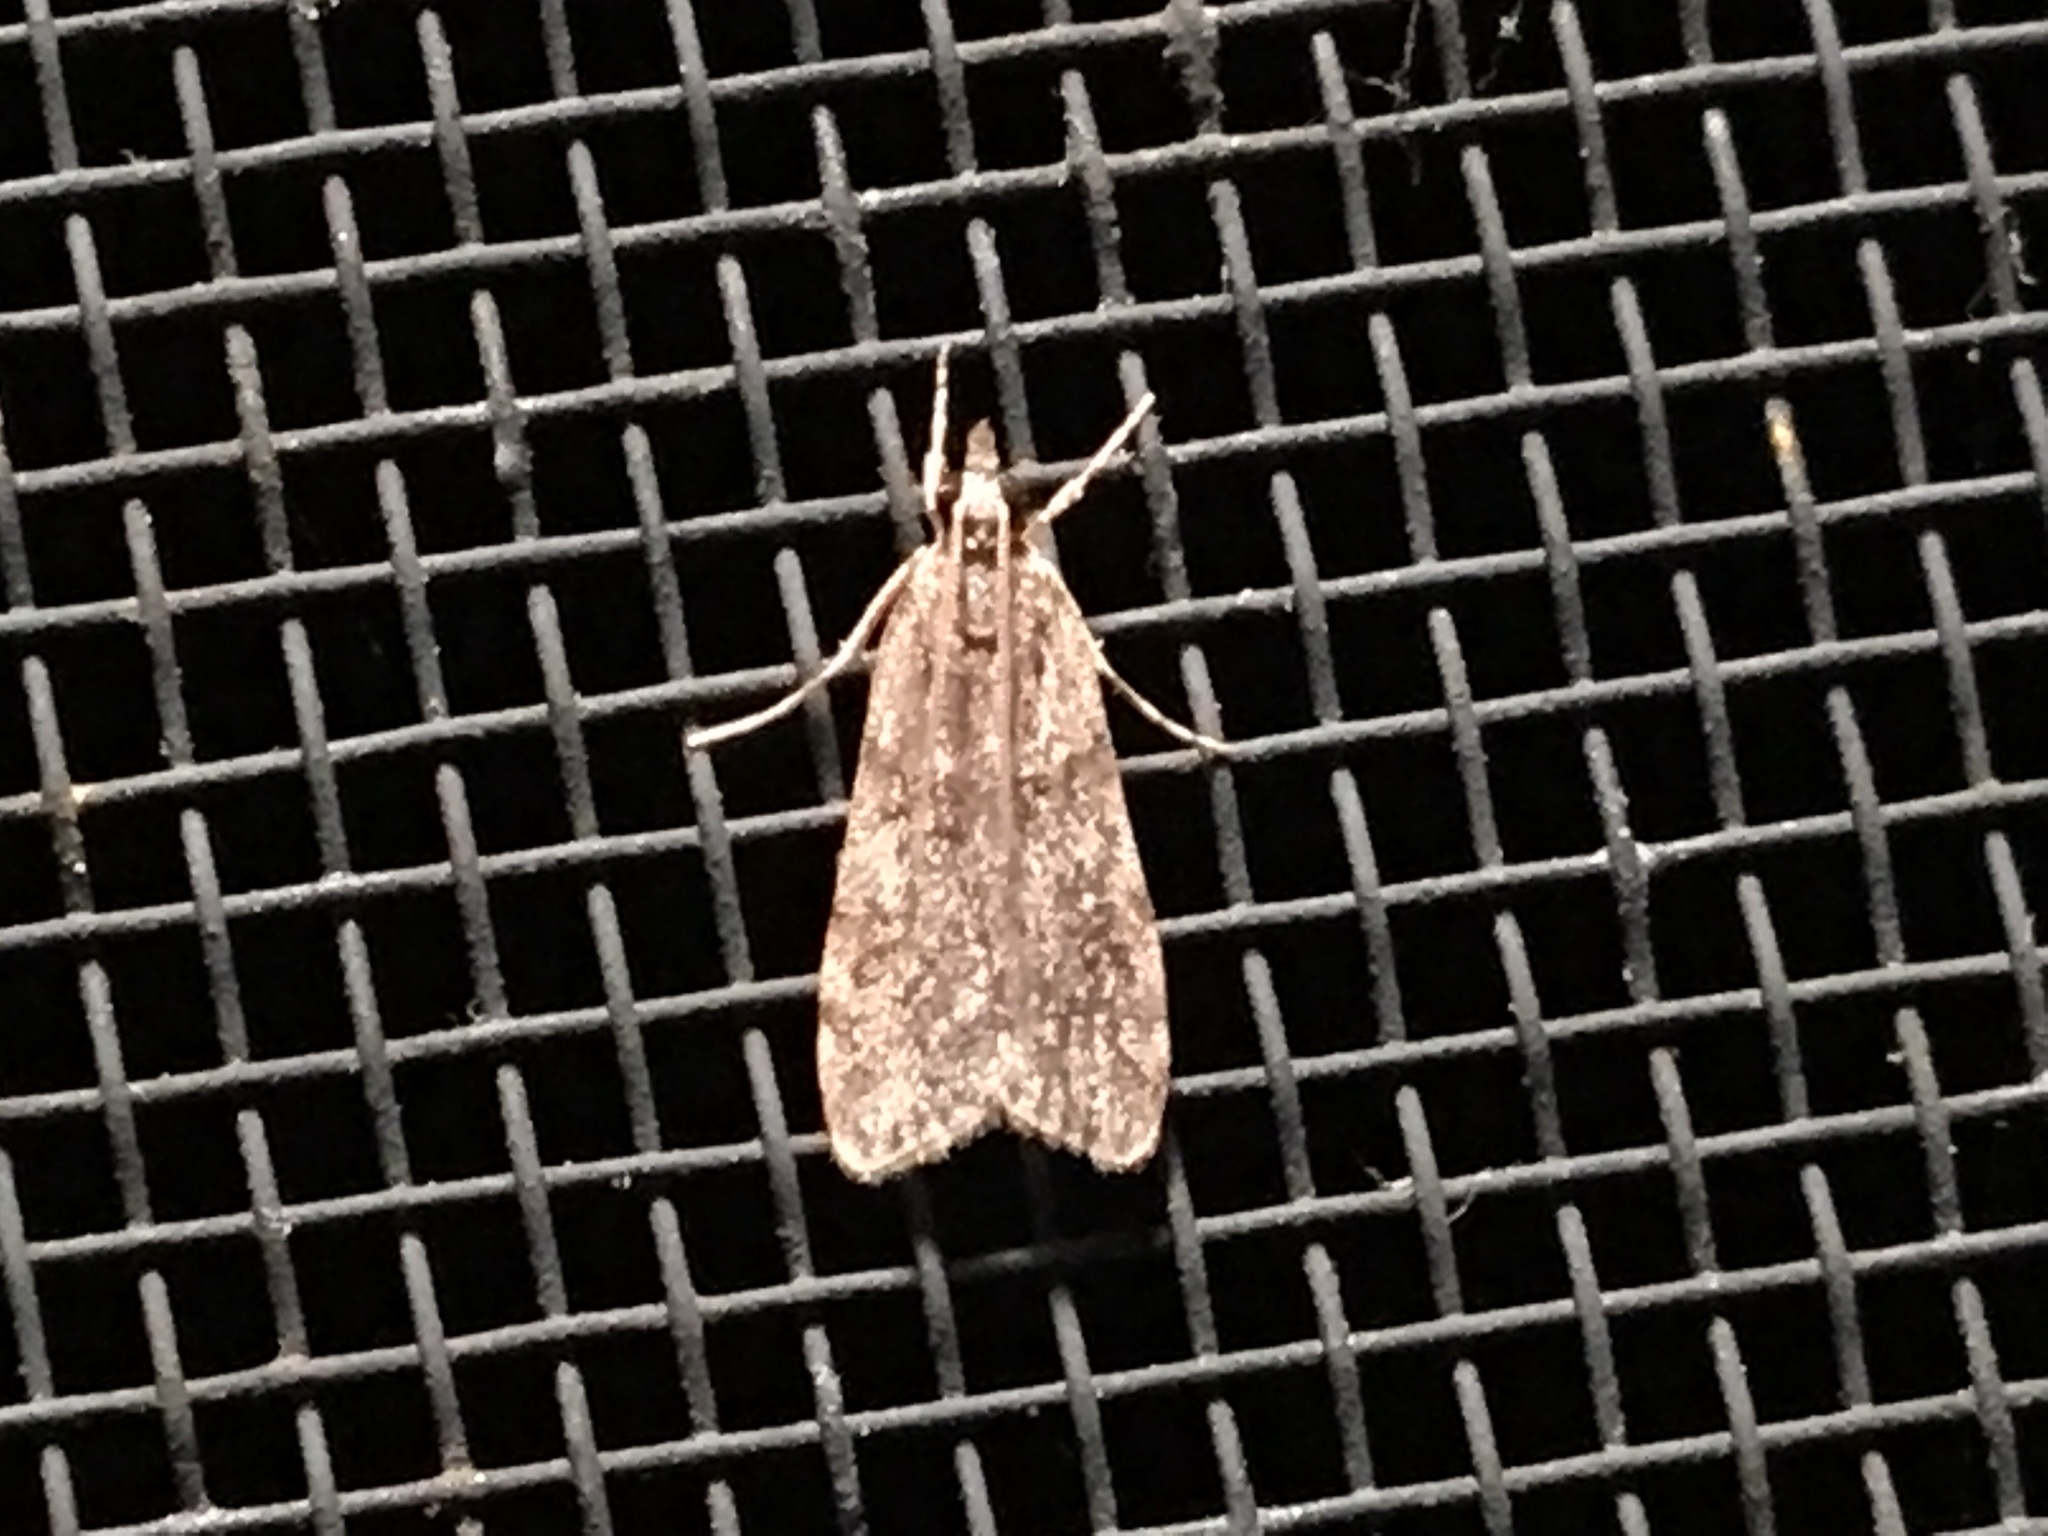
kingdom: Animalia
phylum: Arthropoda
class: Insecta
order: Lepidoptera
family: Crambidae
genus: Scoparia
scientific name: Scoparia biplagialis
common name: Double-striped scoparia moth
